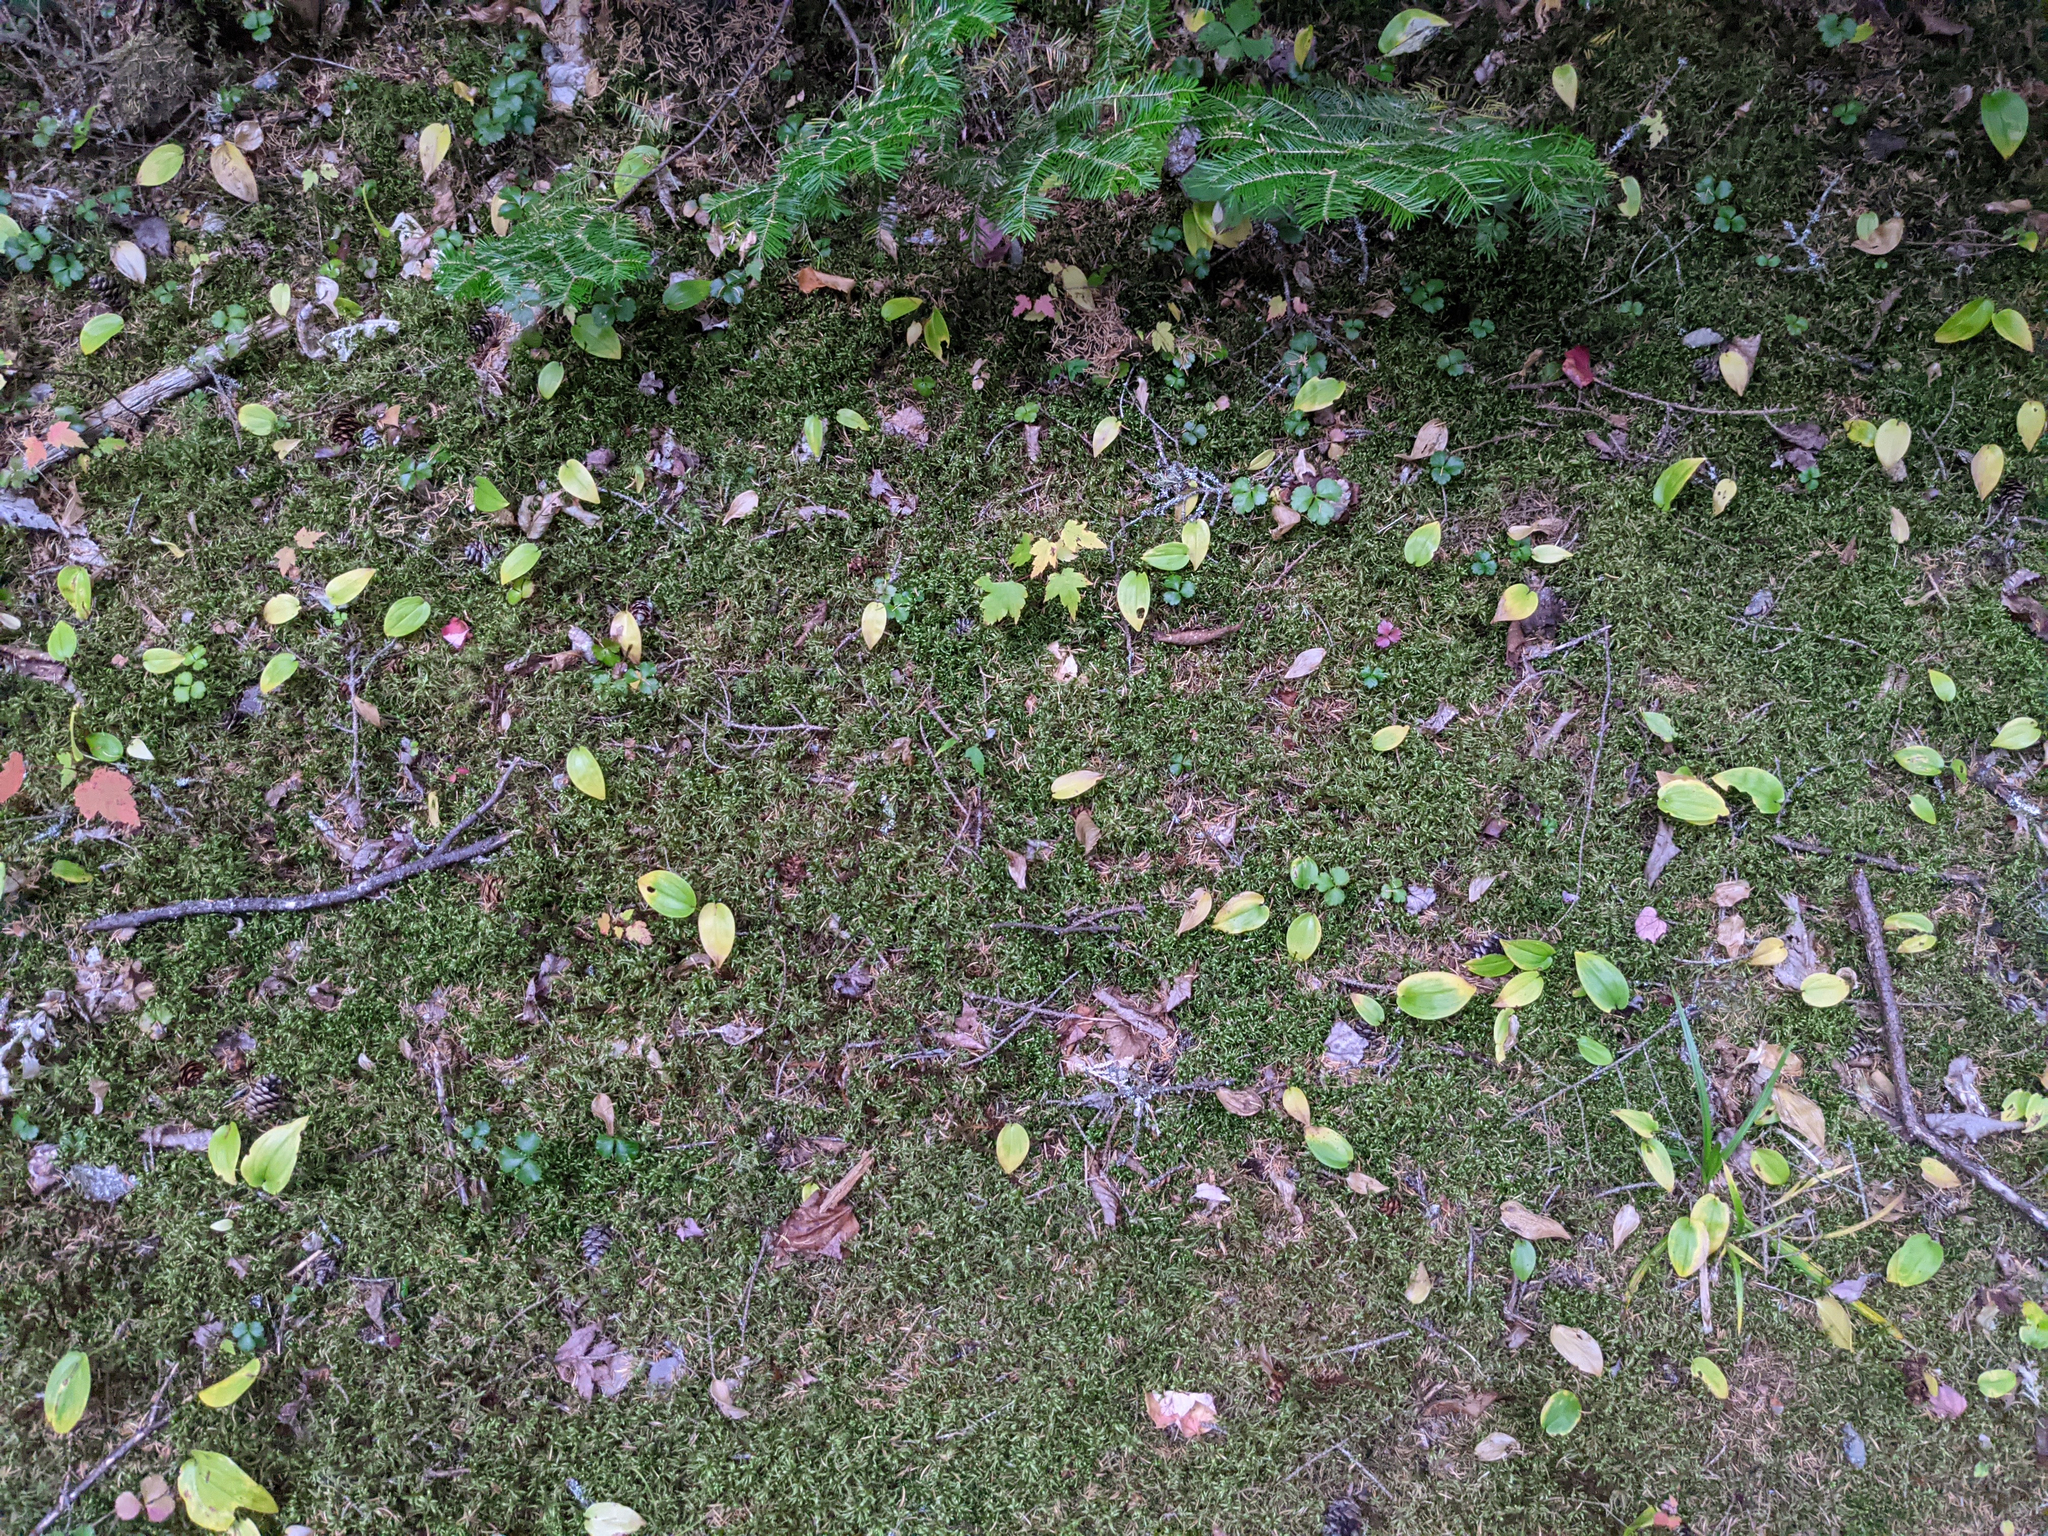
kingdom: Plantae
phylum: Tracheophyta
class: Liliopsida
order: Asparagales
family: Asparagaceae
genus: Maianthemum
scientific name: Maianthemum canadense
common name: False lily-of-the-valley
